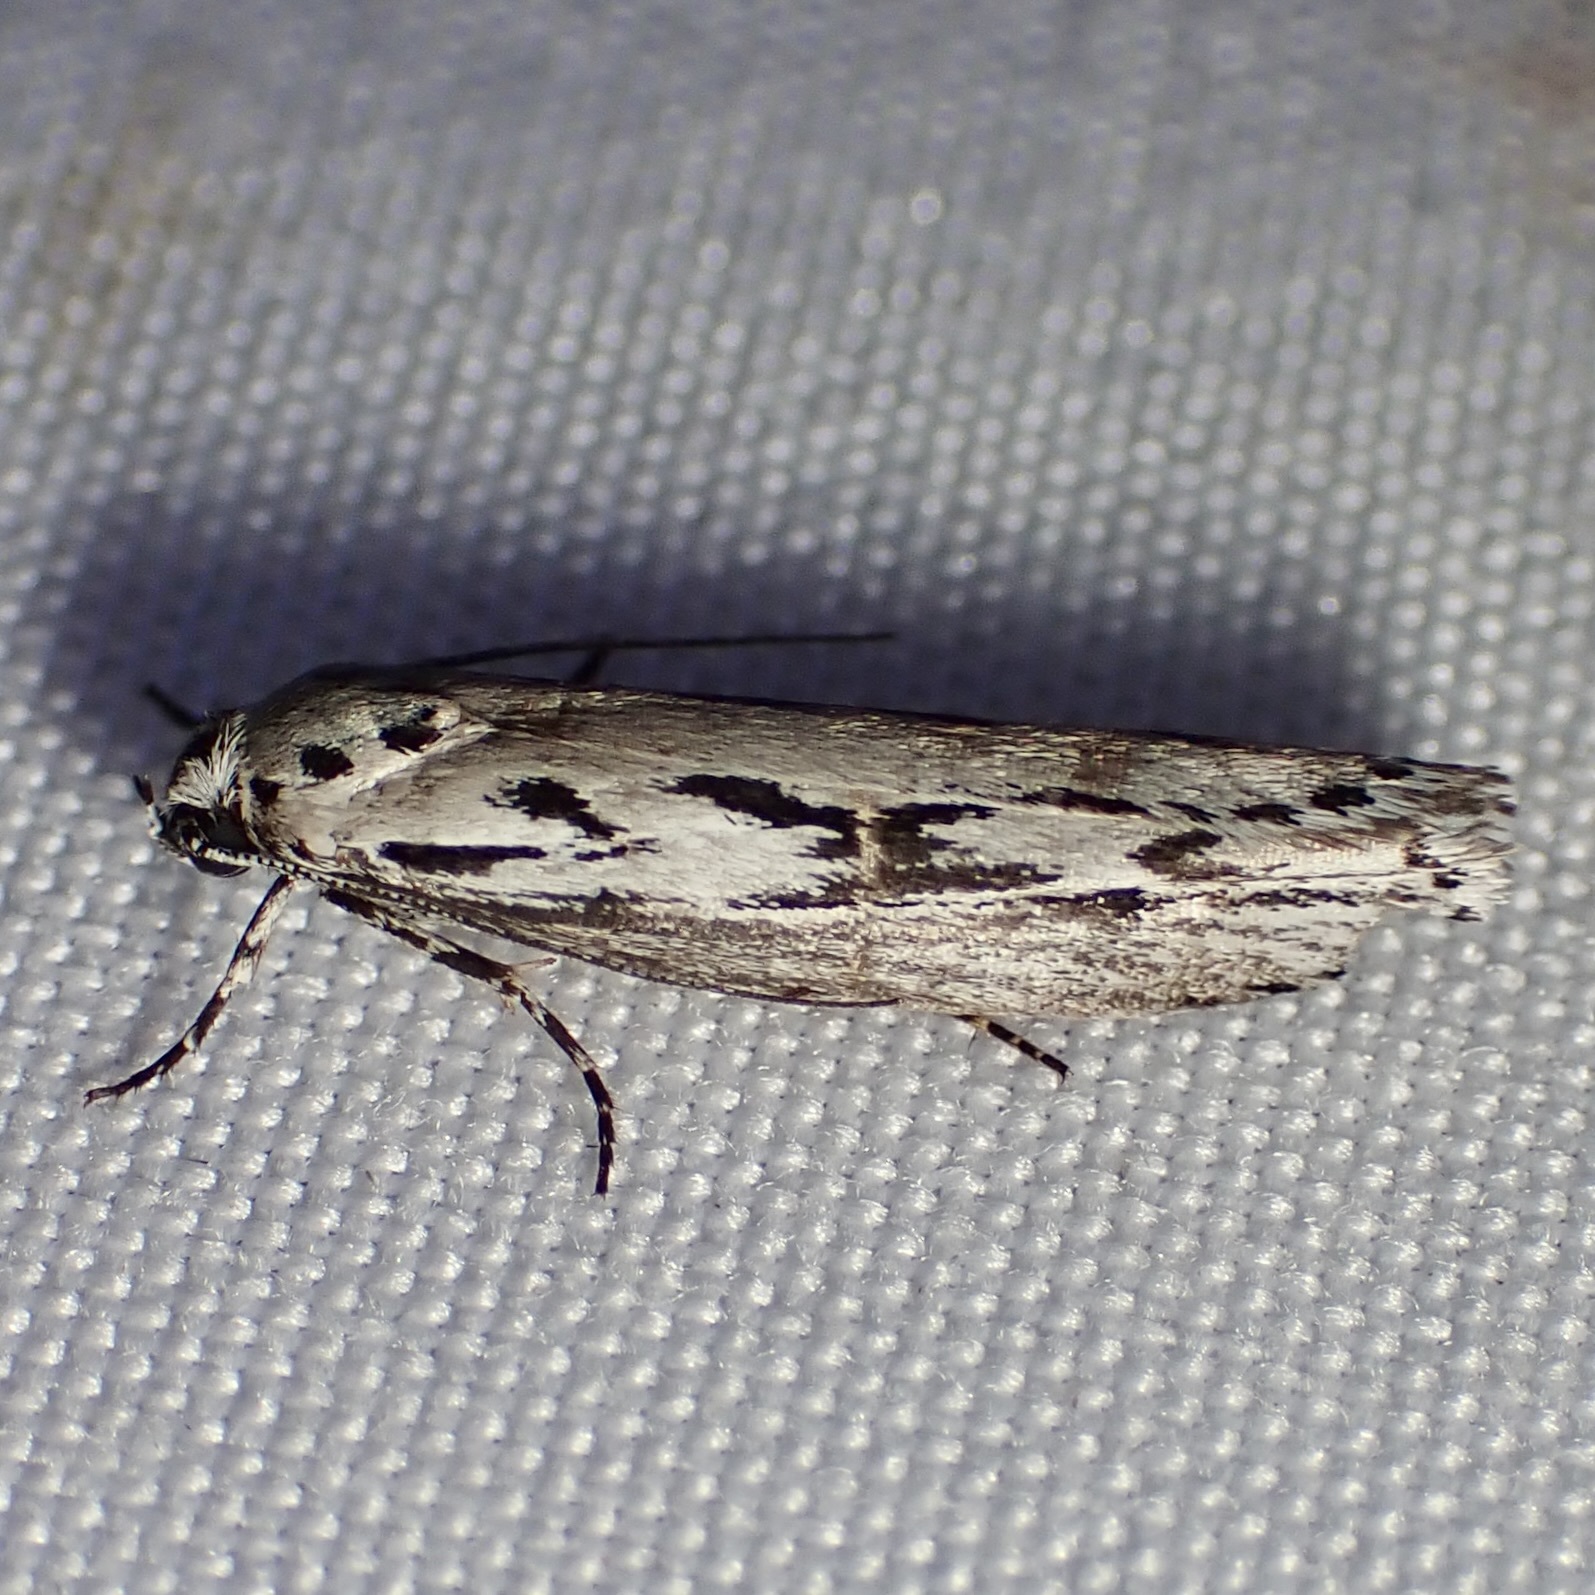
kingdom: Animalia
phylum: Arthropoda
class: Insecta
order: Lepidoptera
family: Ethmiidae
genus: Ethmia
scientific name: Ethmia semitenebrella
